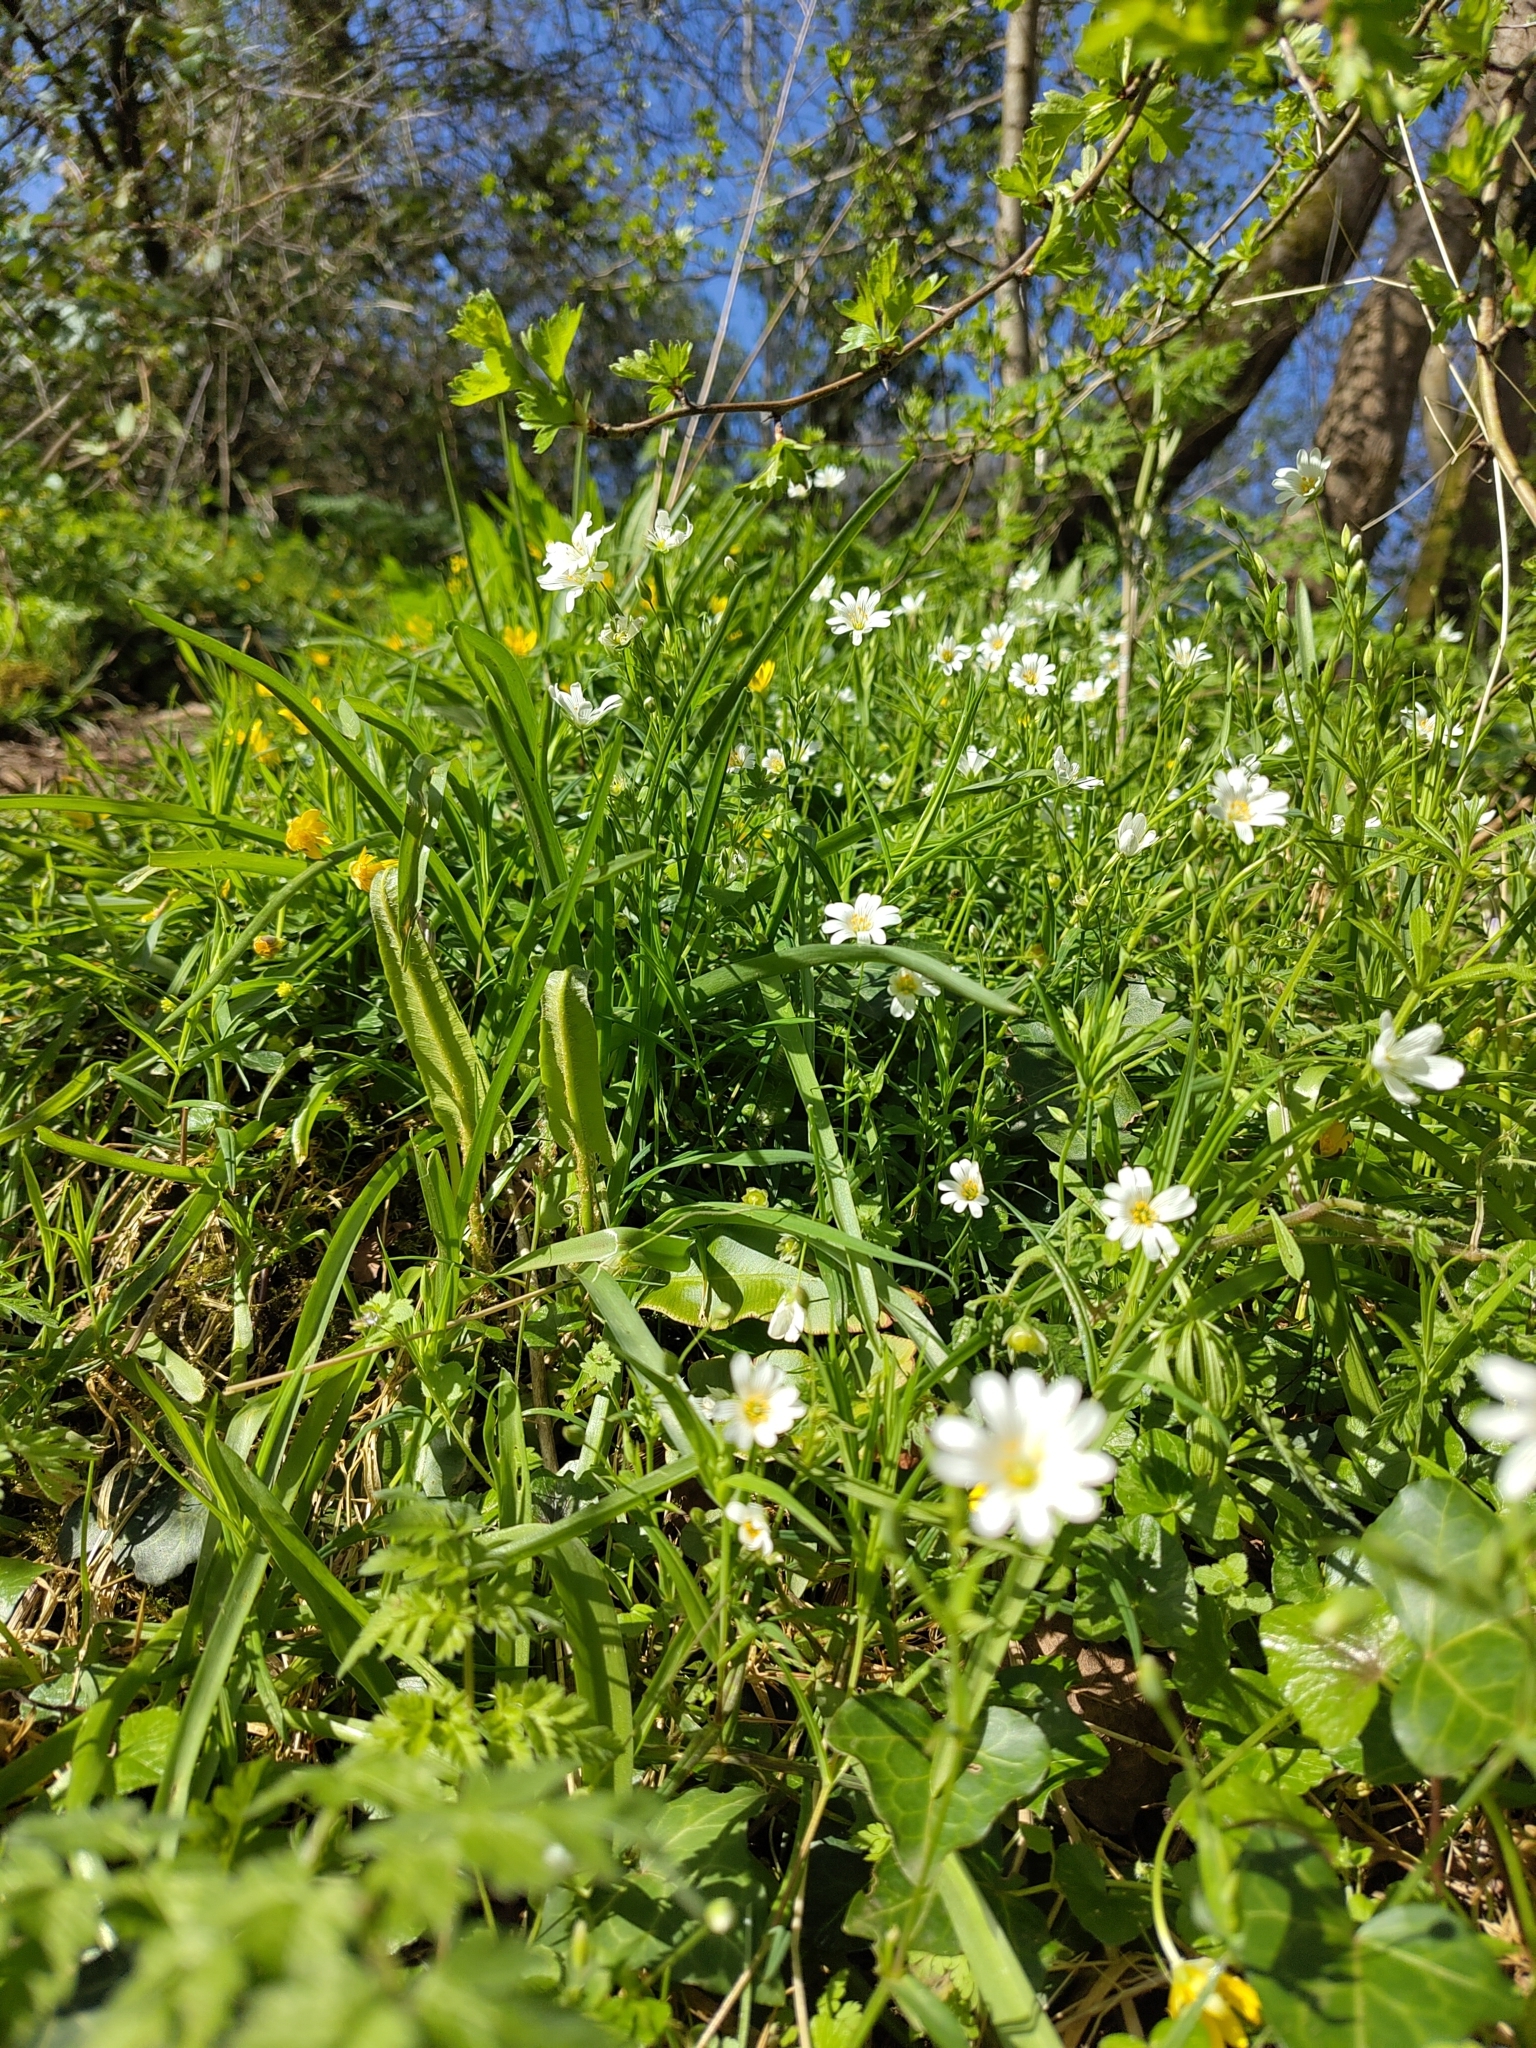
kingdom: Plantae
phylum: Tracheophyta
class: Magnoliopsida
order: Caryophyllales
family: Caryophyllaceae
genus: Rabelera
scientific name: Rabelera holostea
